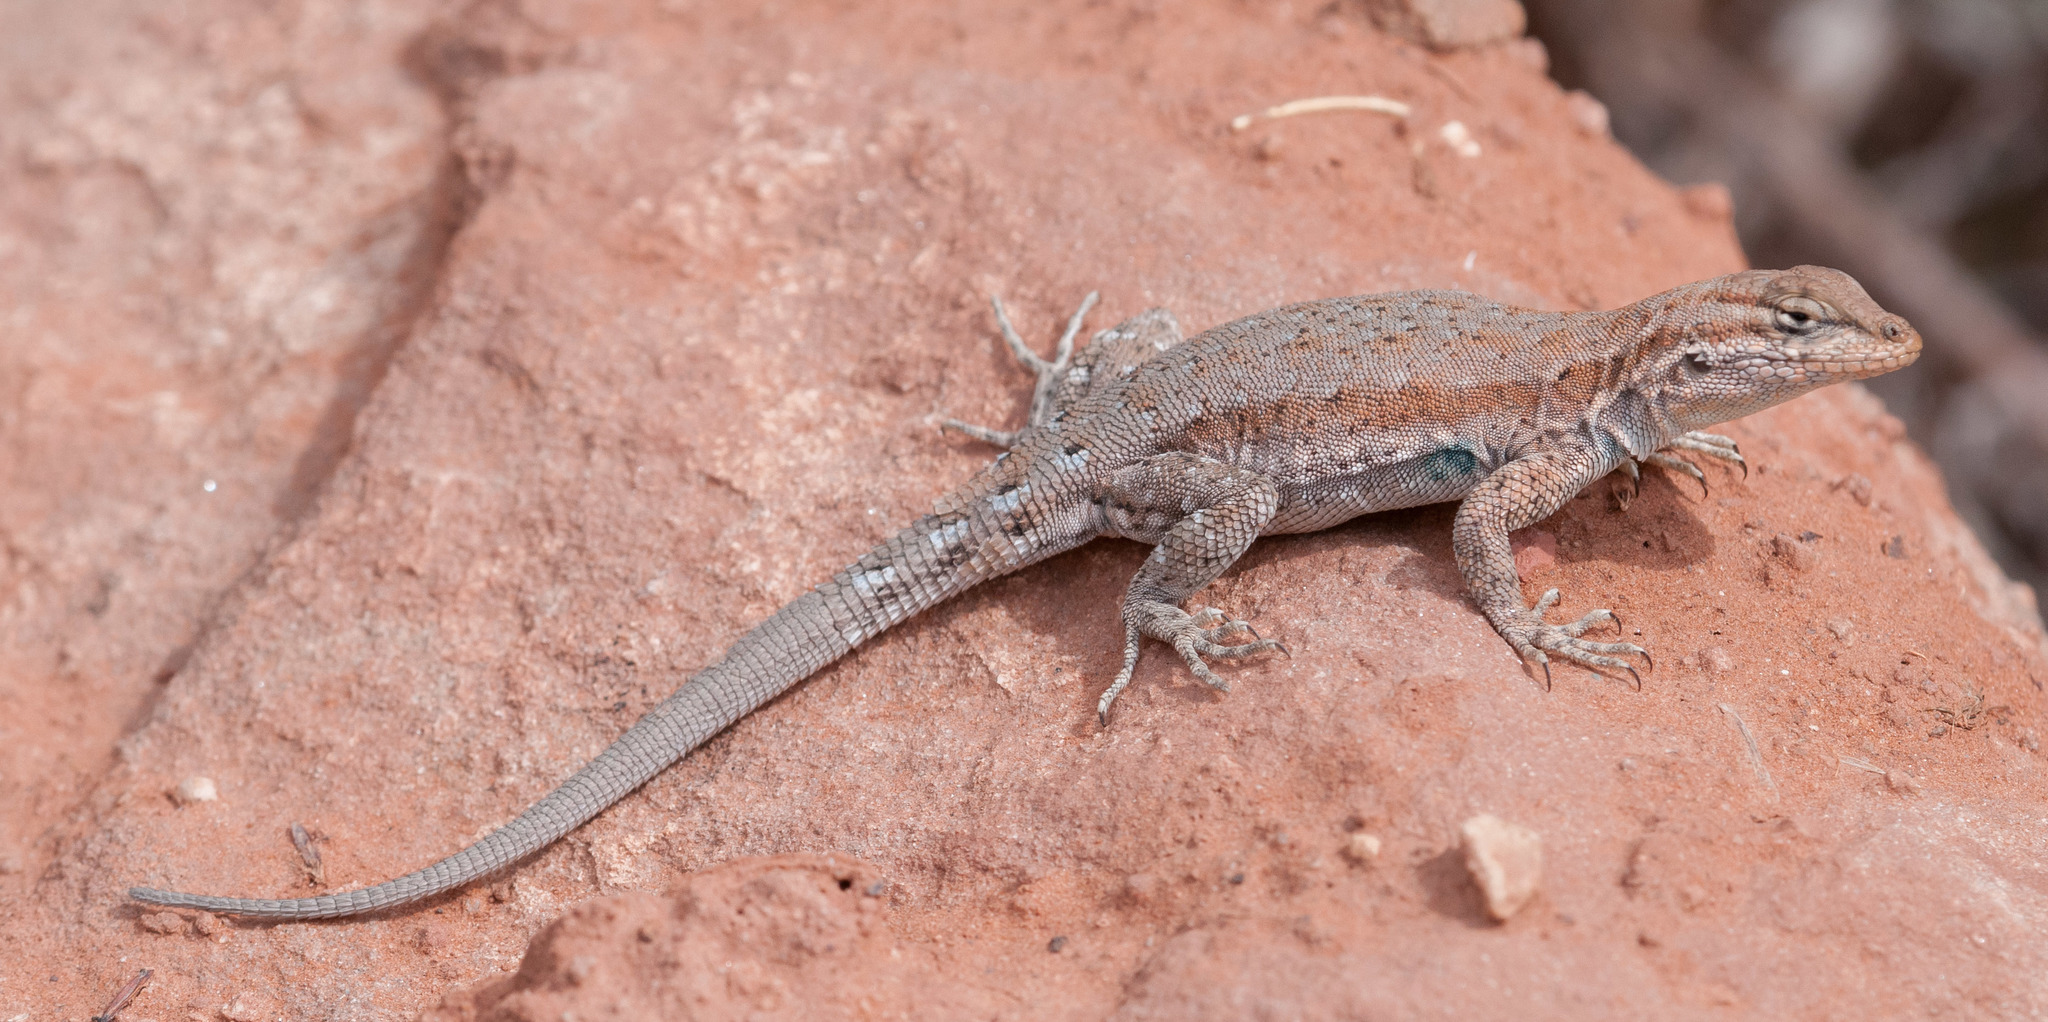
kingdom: Animalia
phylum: Chordata
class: Squamata
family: Phrynosomatidae
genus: Uta
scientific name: Uta stansburiana
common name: Side-blotched lizard
